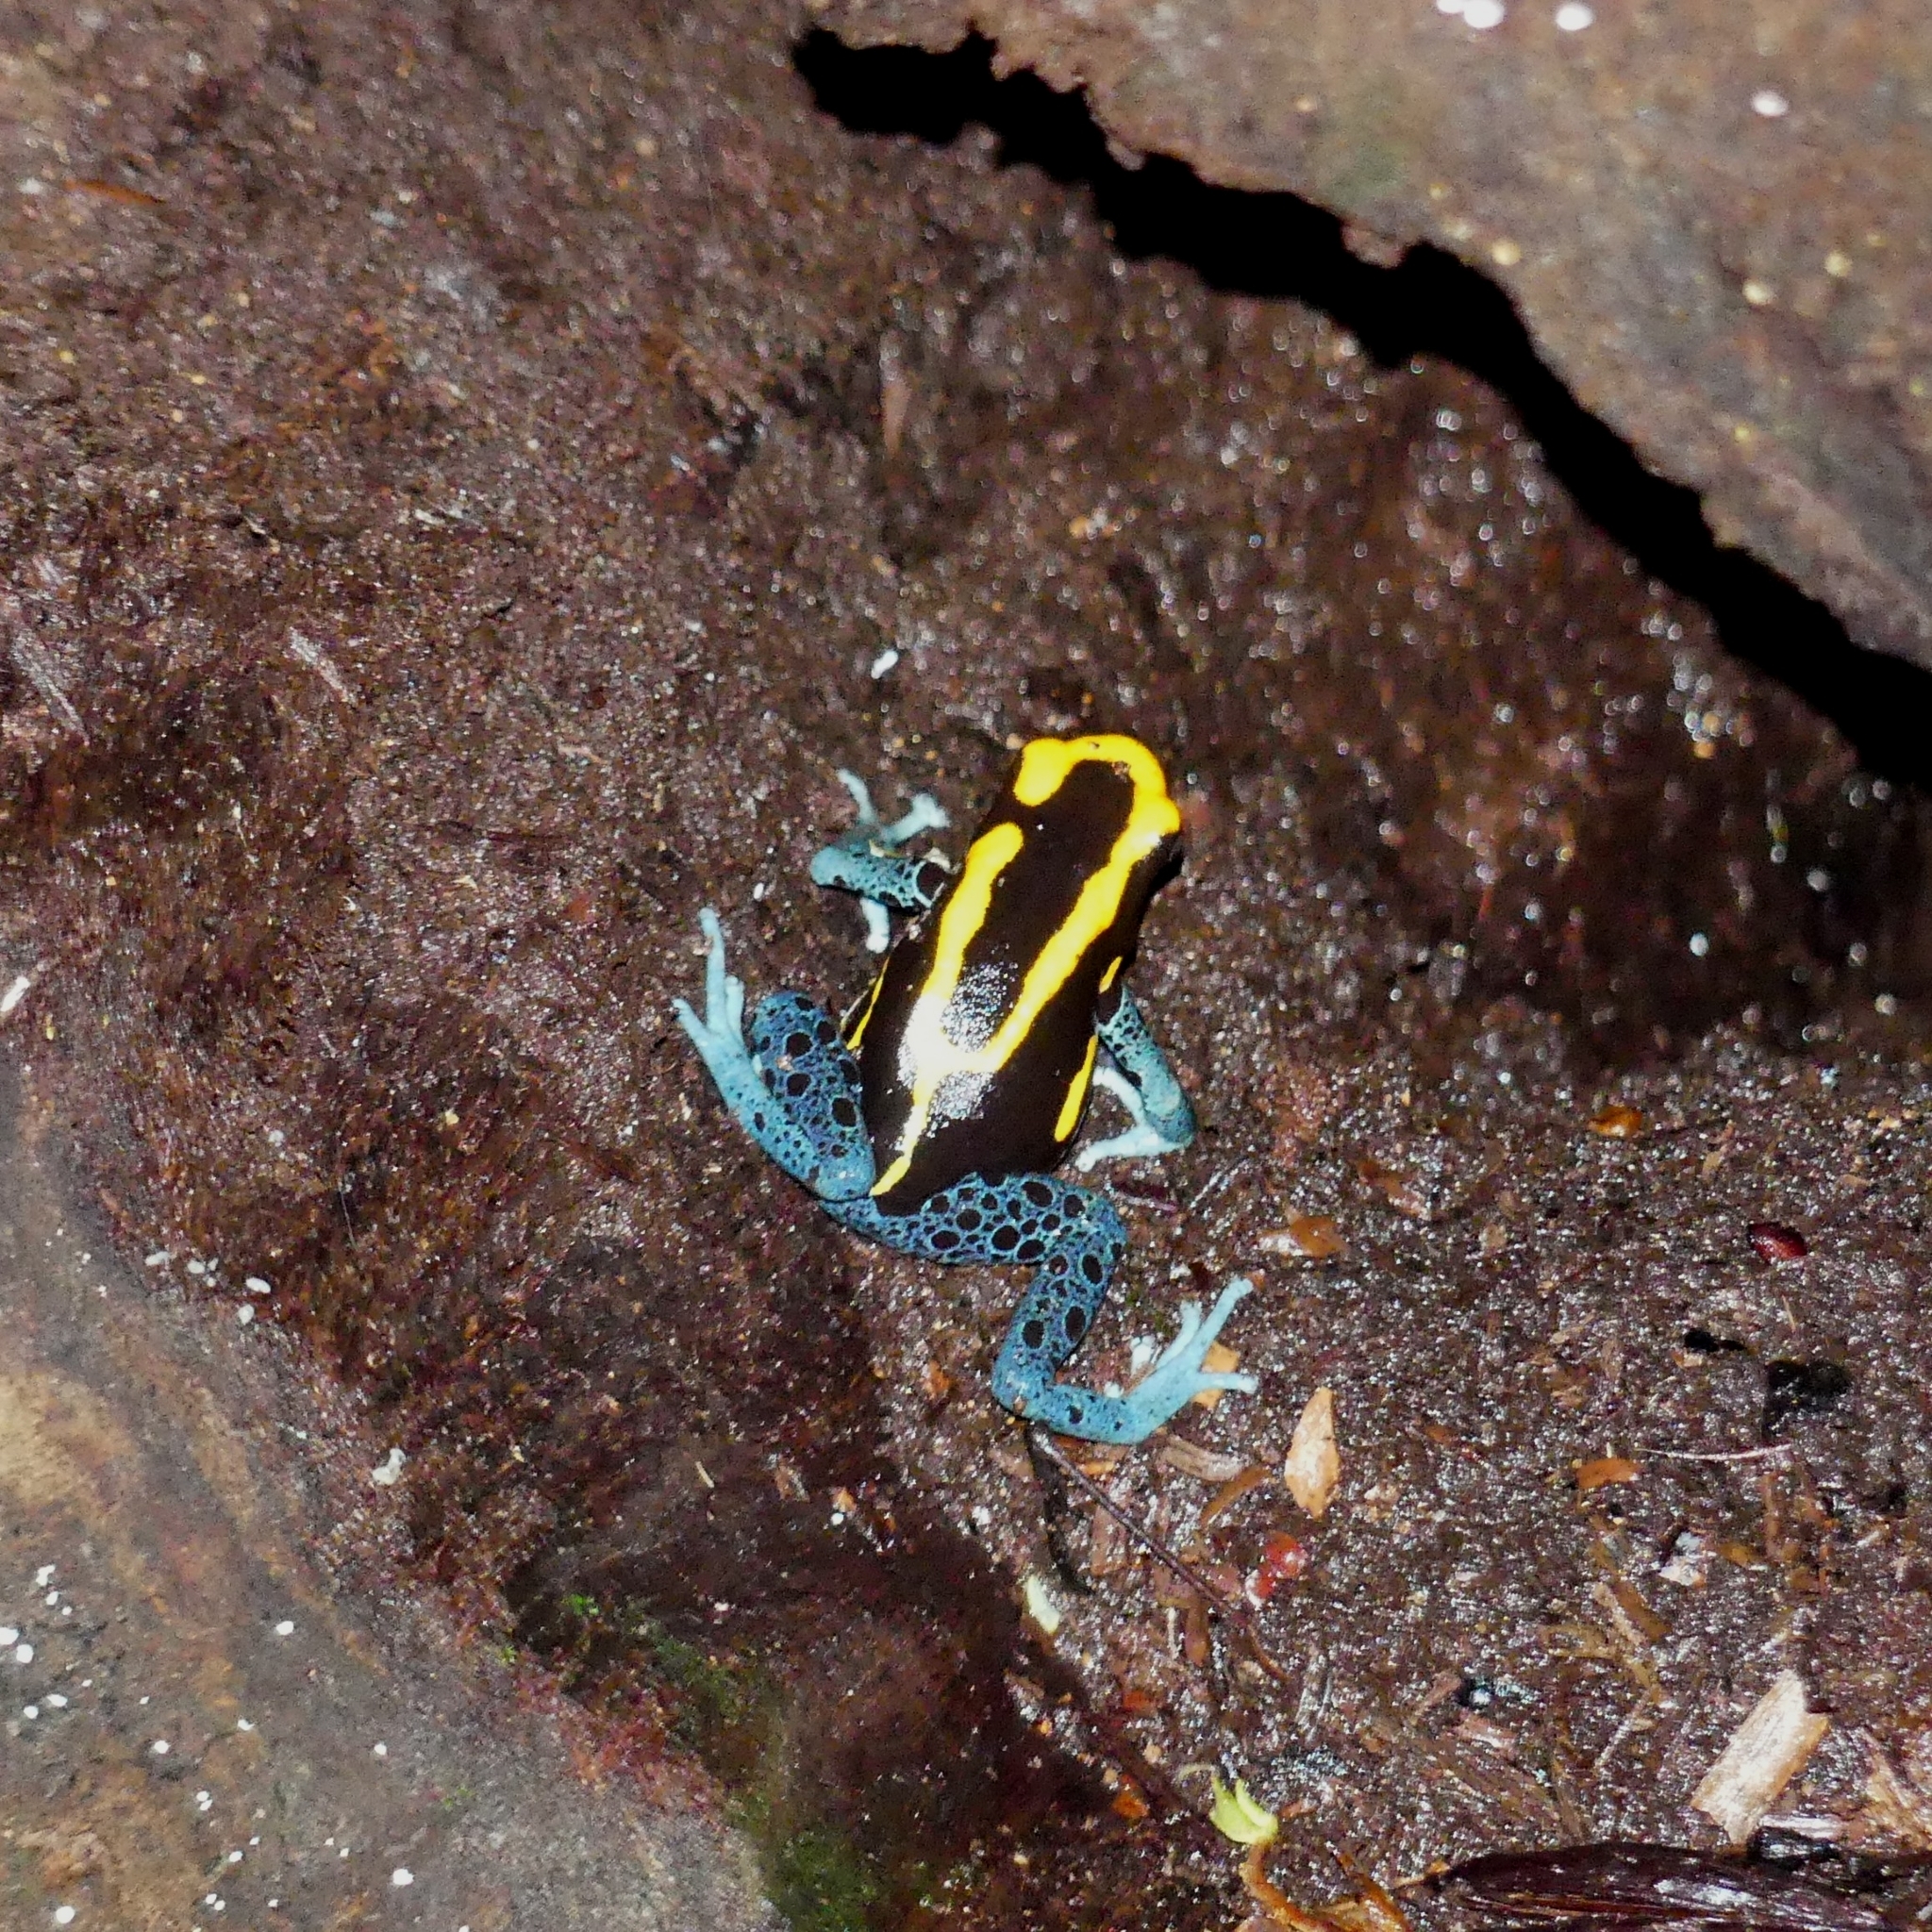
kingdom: Animalia
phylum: Chordata
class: Amphibia
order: Anura
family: Dendrobatidae
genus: Dendrobates
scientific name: Dendrobates tinctorius
